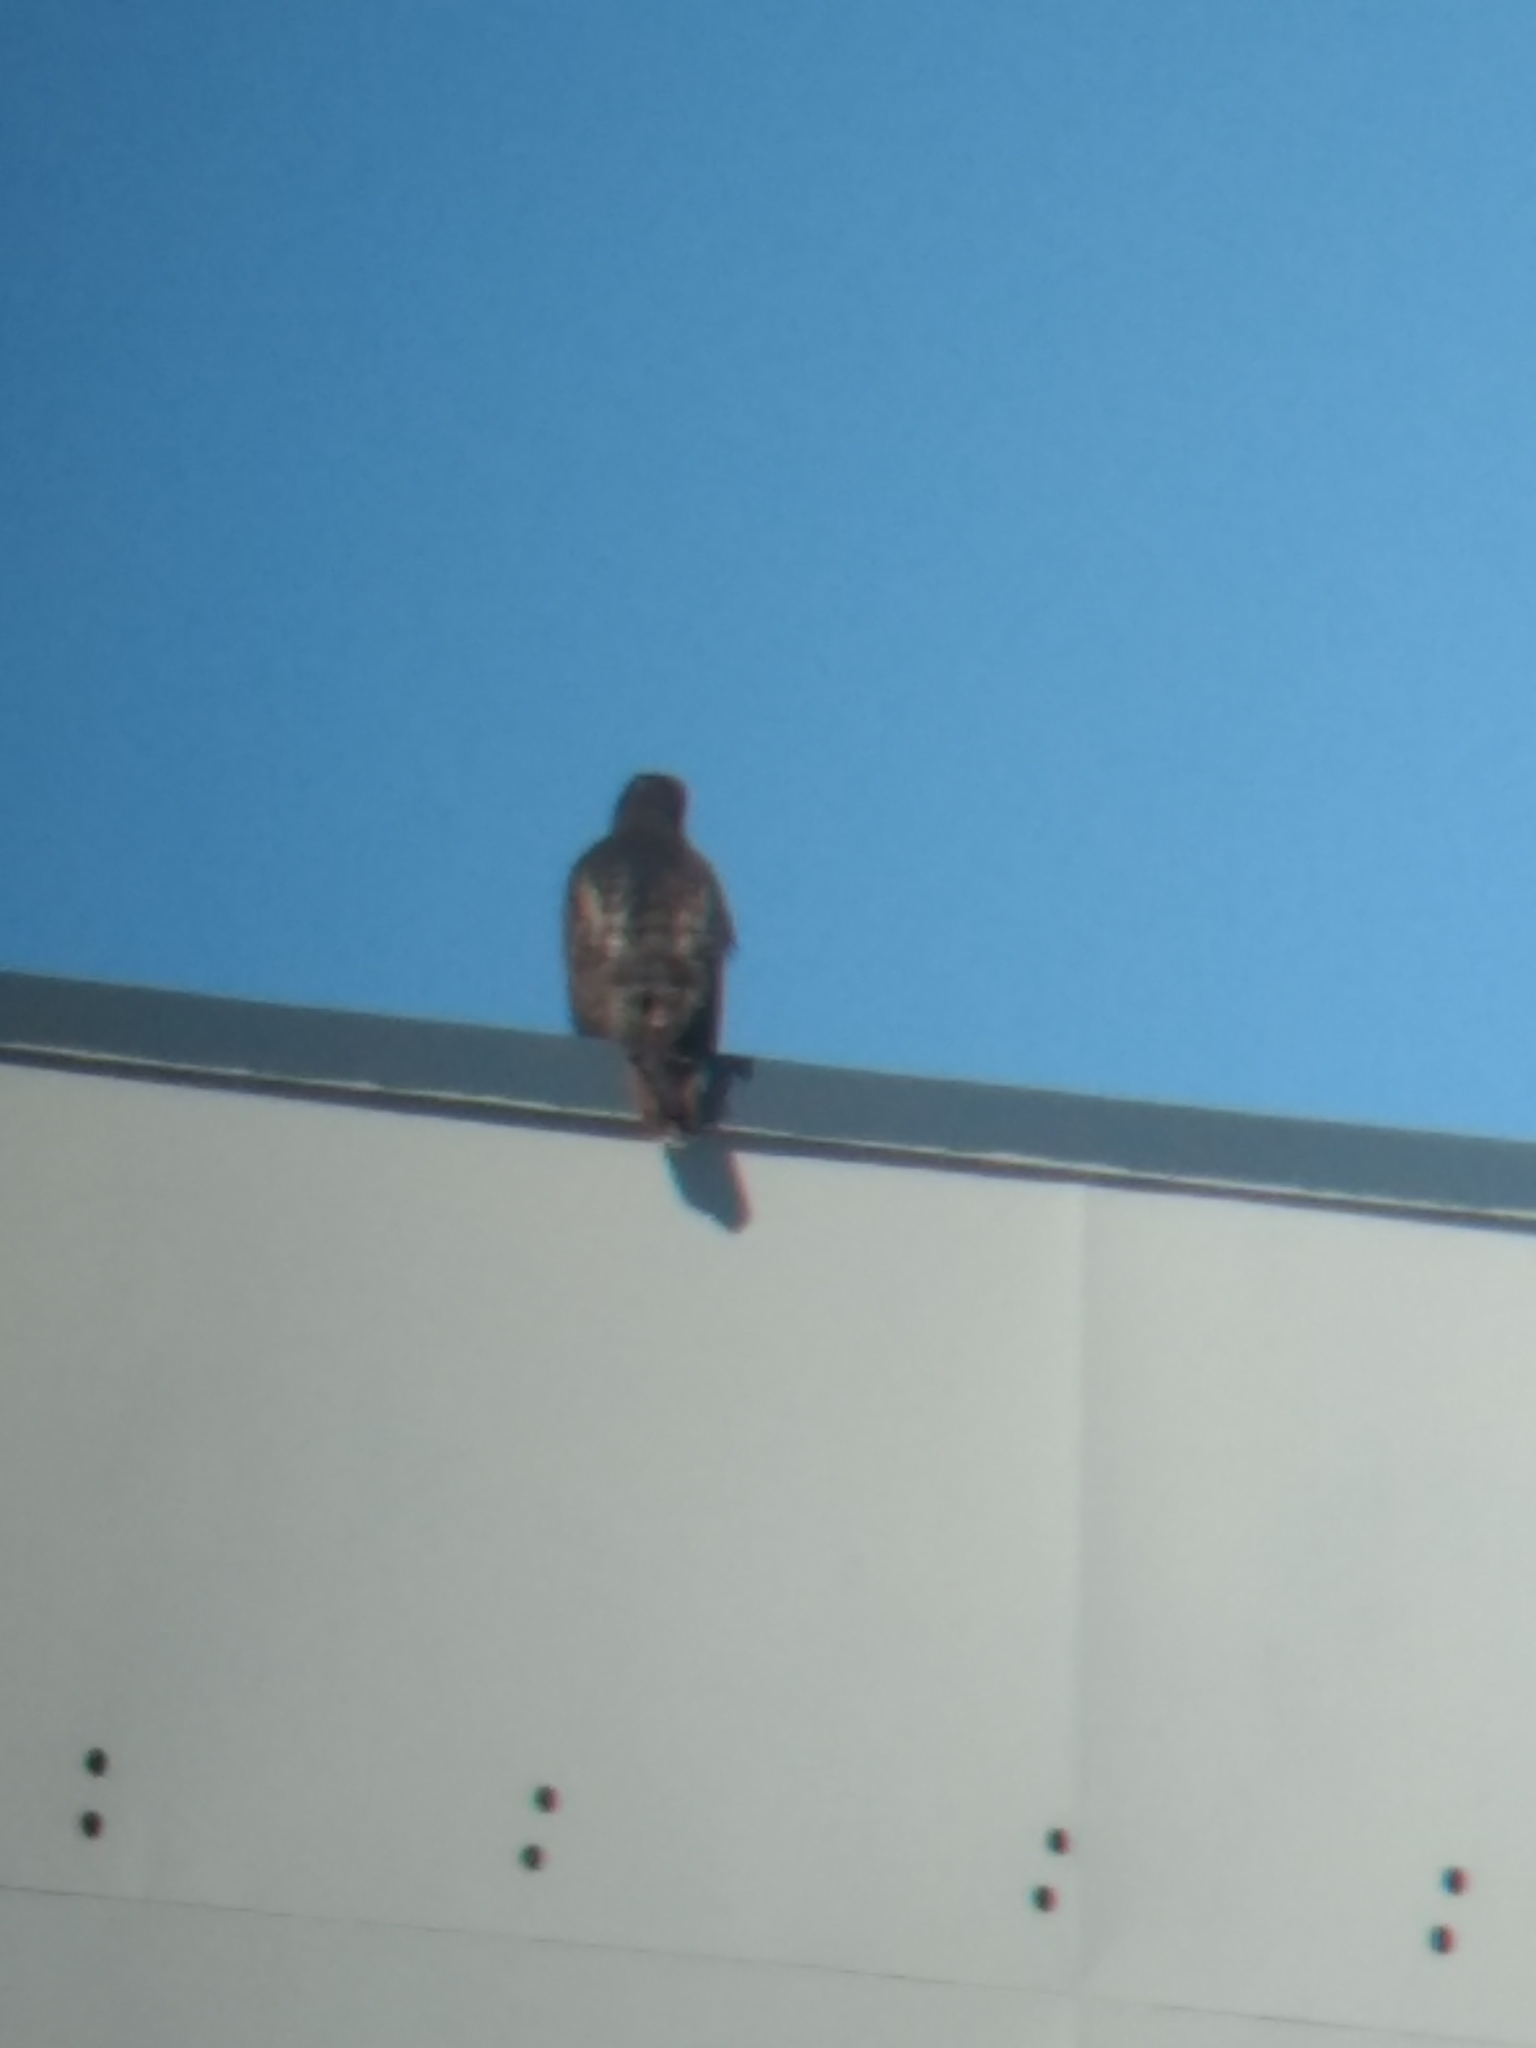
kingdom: Animalia
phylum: Chordata
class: Aves
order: Accipitriformes
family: Accipitridae
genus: Buteo
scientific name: Buteo jamaicensis
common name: Red-tailed hawk
